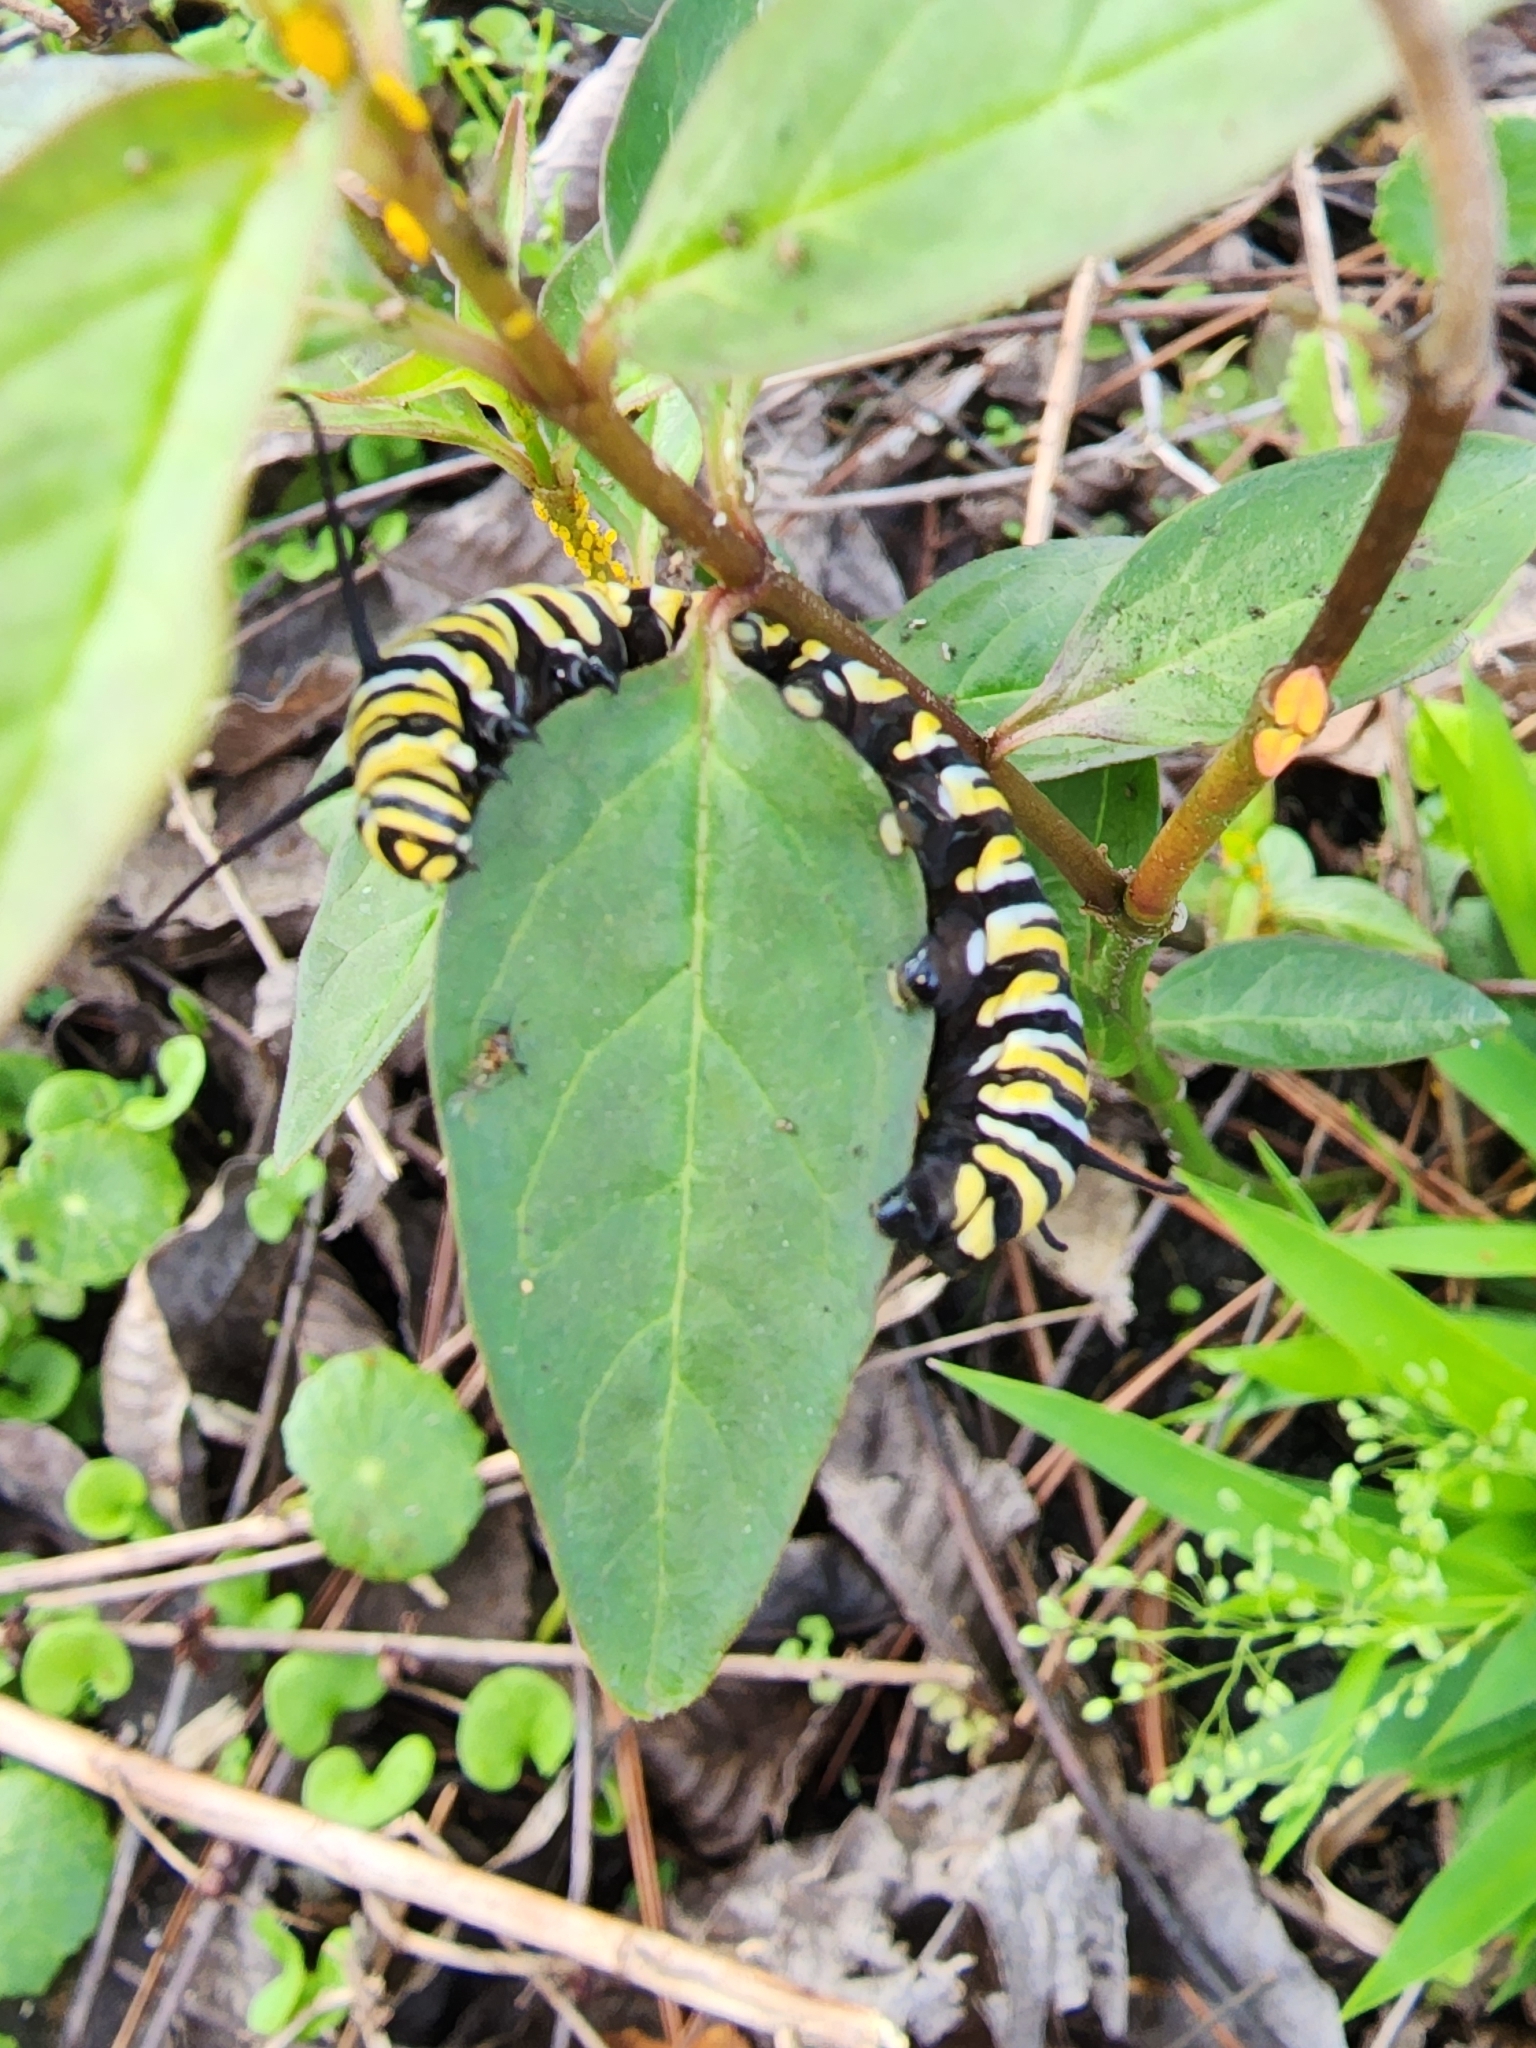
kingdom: Animalia
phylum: Arthropoda
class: Insecta
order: Lepidoptera
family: Nymphalidae
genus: Danaus
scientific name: Danaus plexippus
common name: Monarch
